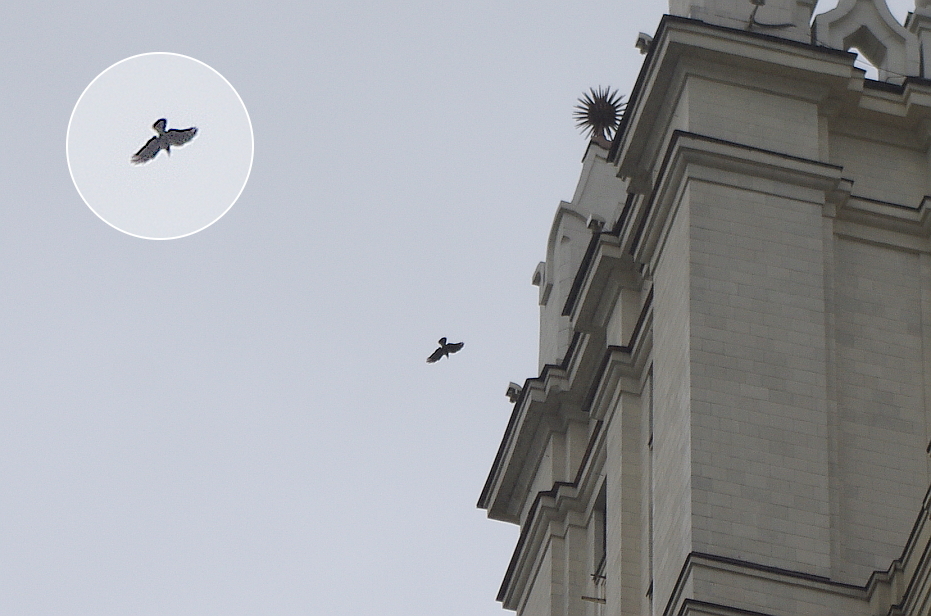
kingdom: Animalia
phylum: Chordata
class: Aves
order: Passeriformes
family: Corvidae
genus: Corvus
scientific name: Corvus cornix
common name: Hooded crow
